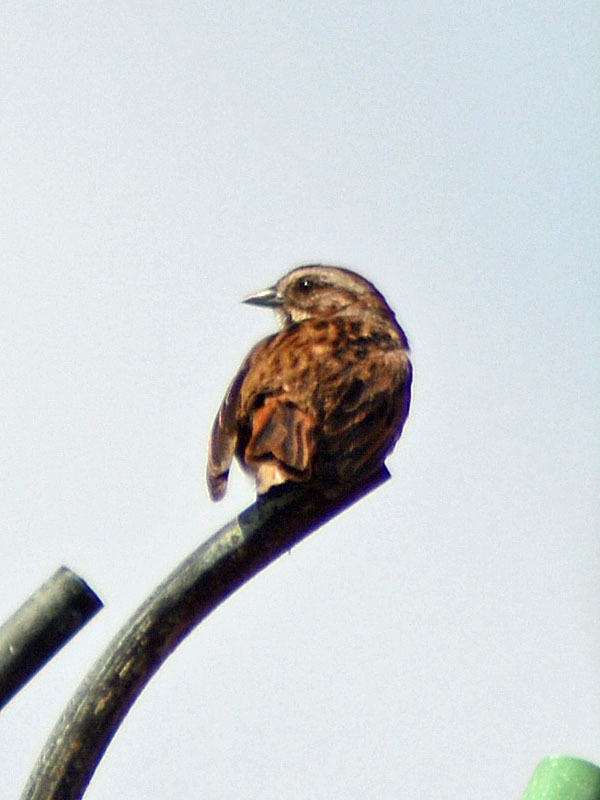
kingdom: Animalia
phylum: Chordata
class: Aves
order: Passeriformes
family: Passerellidae
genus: Melospiza
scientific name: Melospiza melodia
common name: Song sparrow
